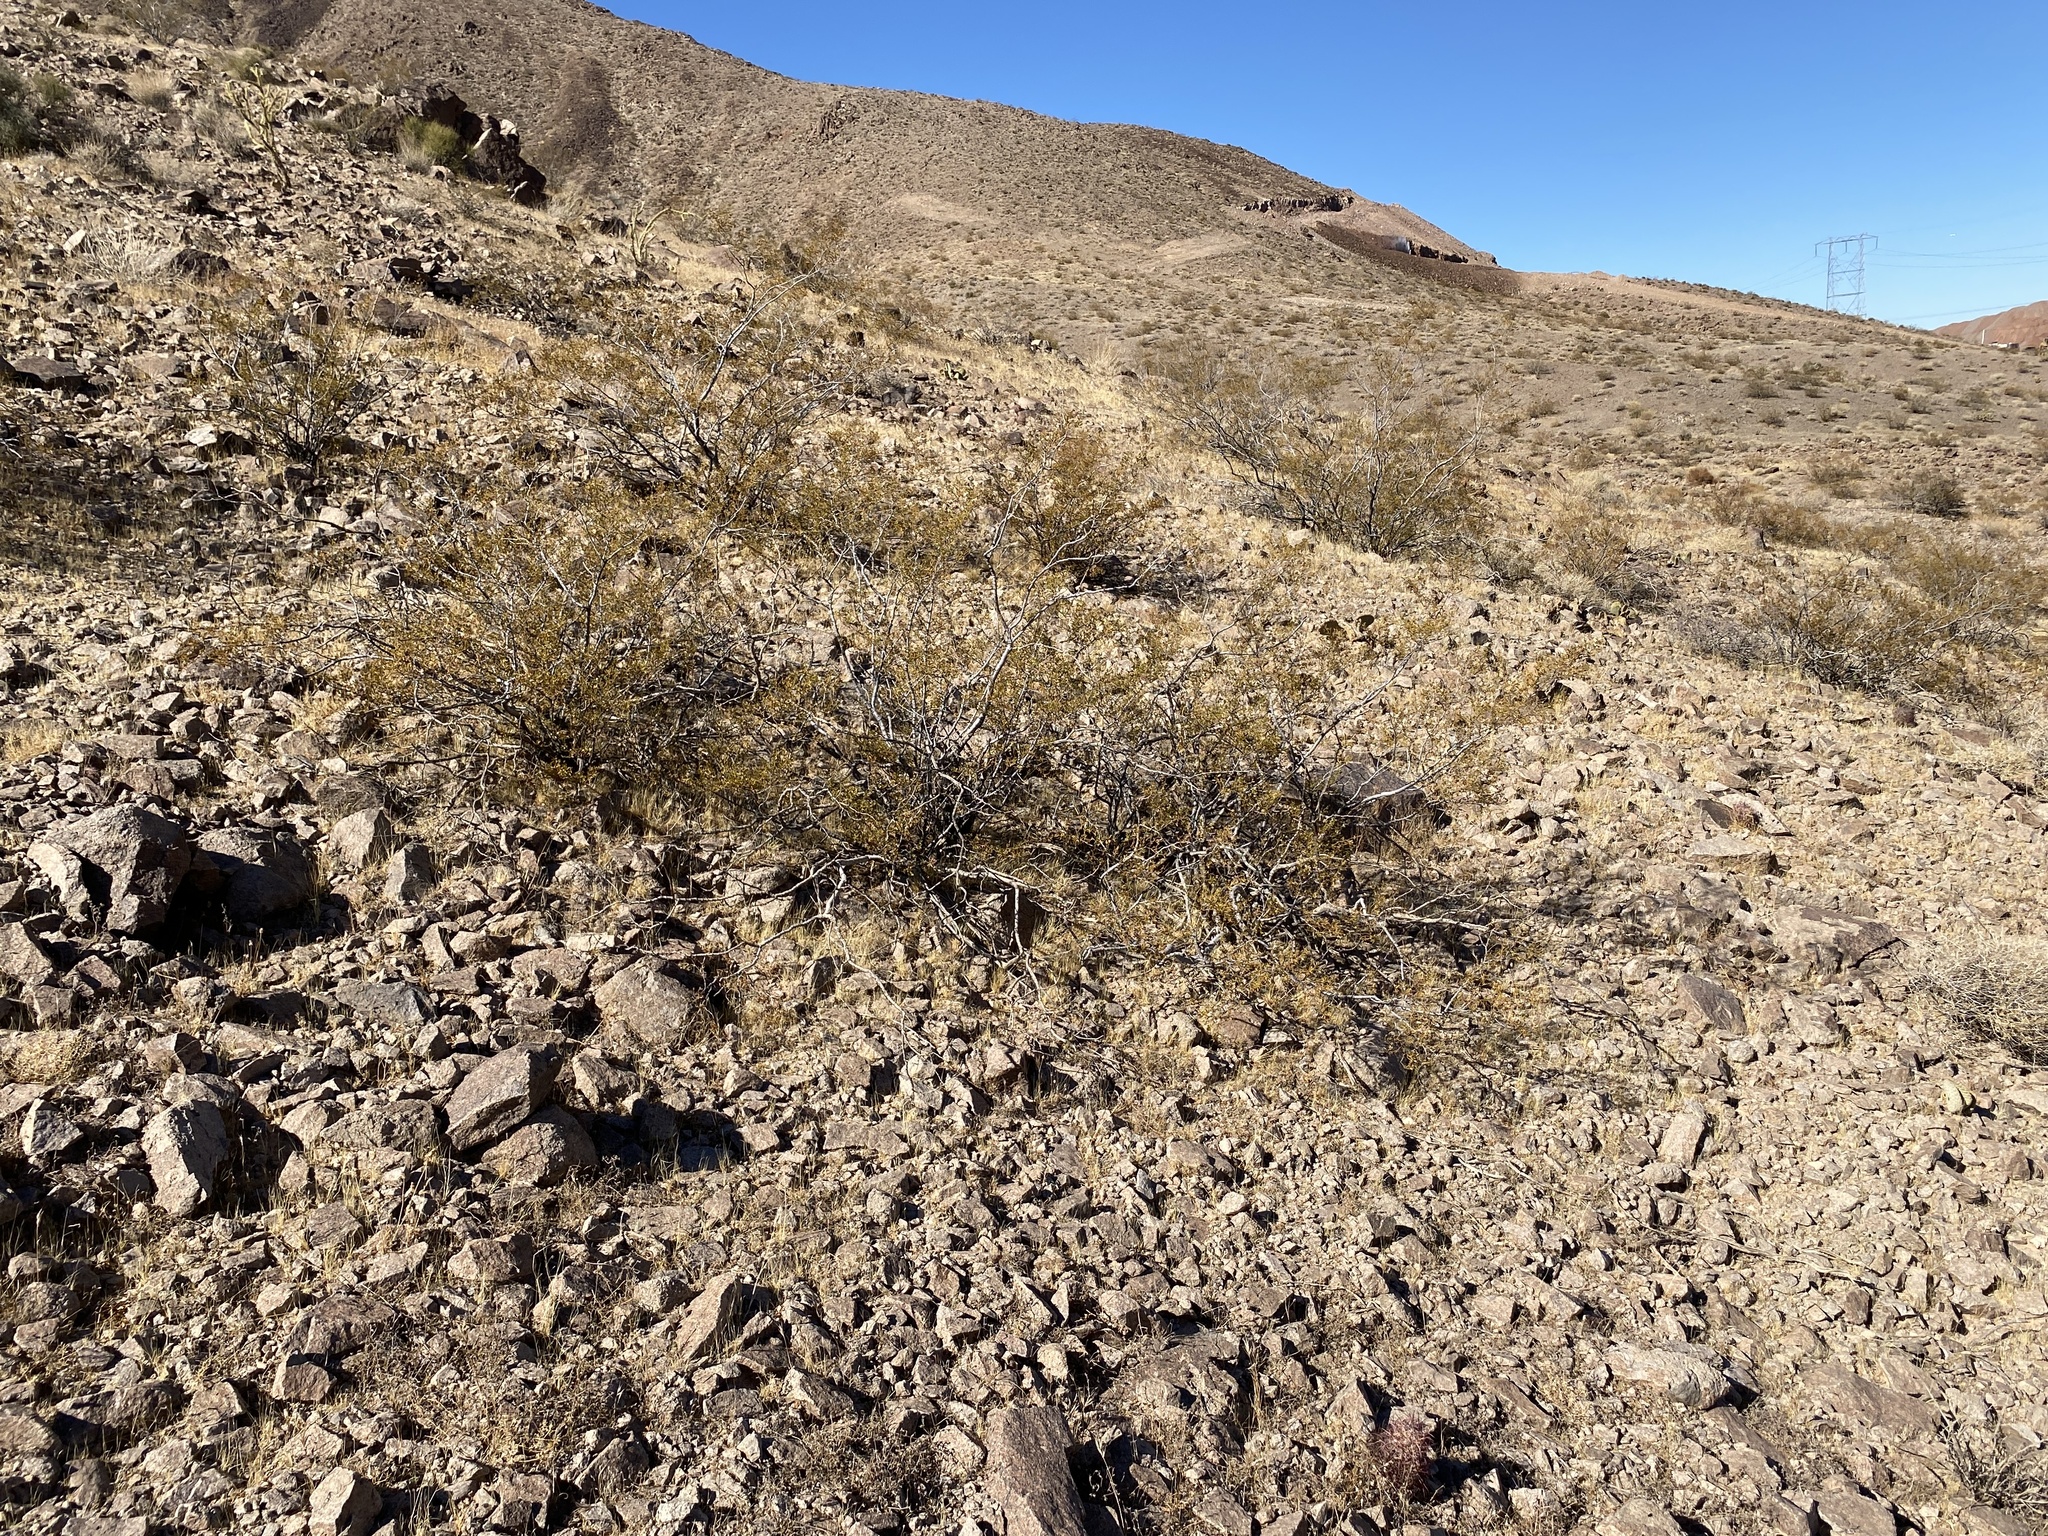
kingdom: Plantae
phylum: Tracheophyta
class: Magnoliopsida
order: Zygophyllales
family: Zygophyllaceae
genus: Larrea
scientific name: Larrea tridentata
